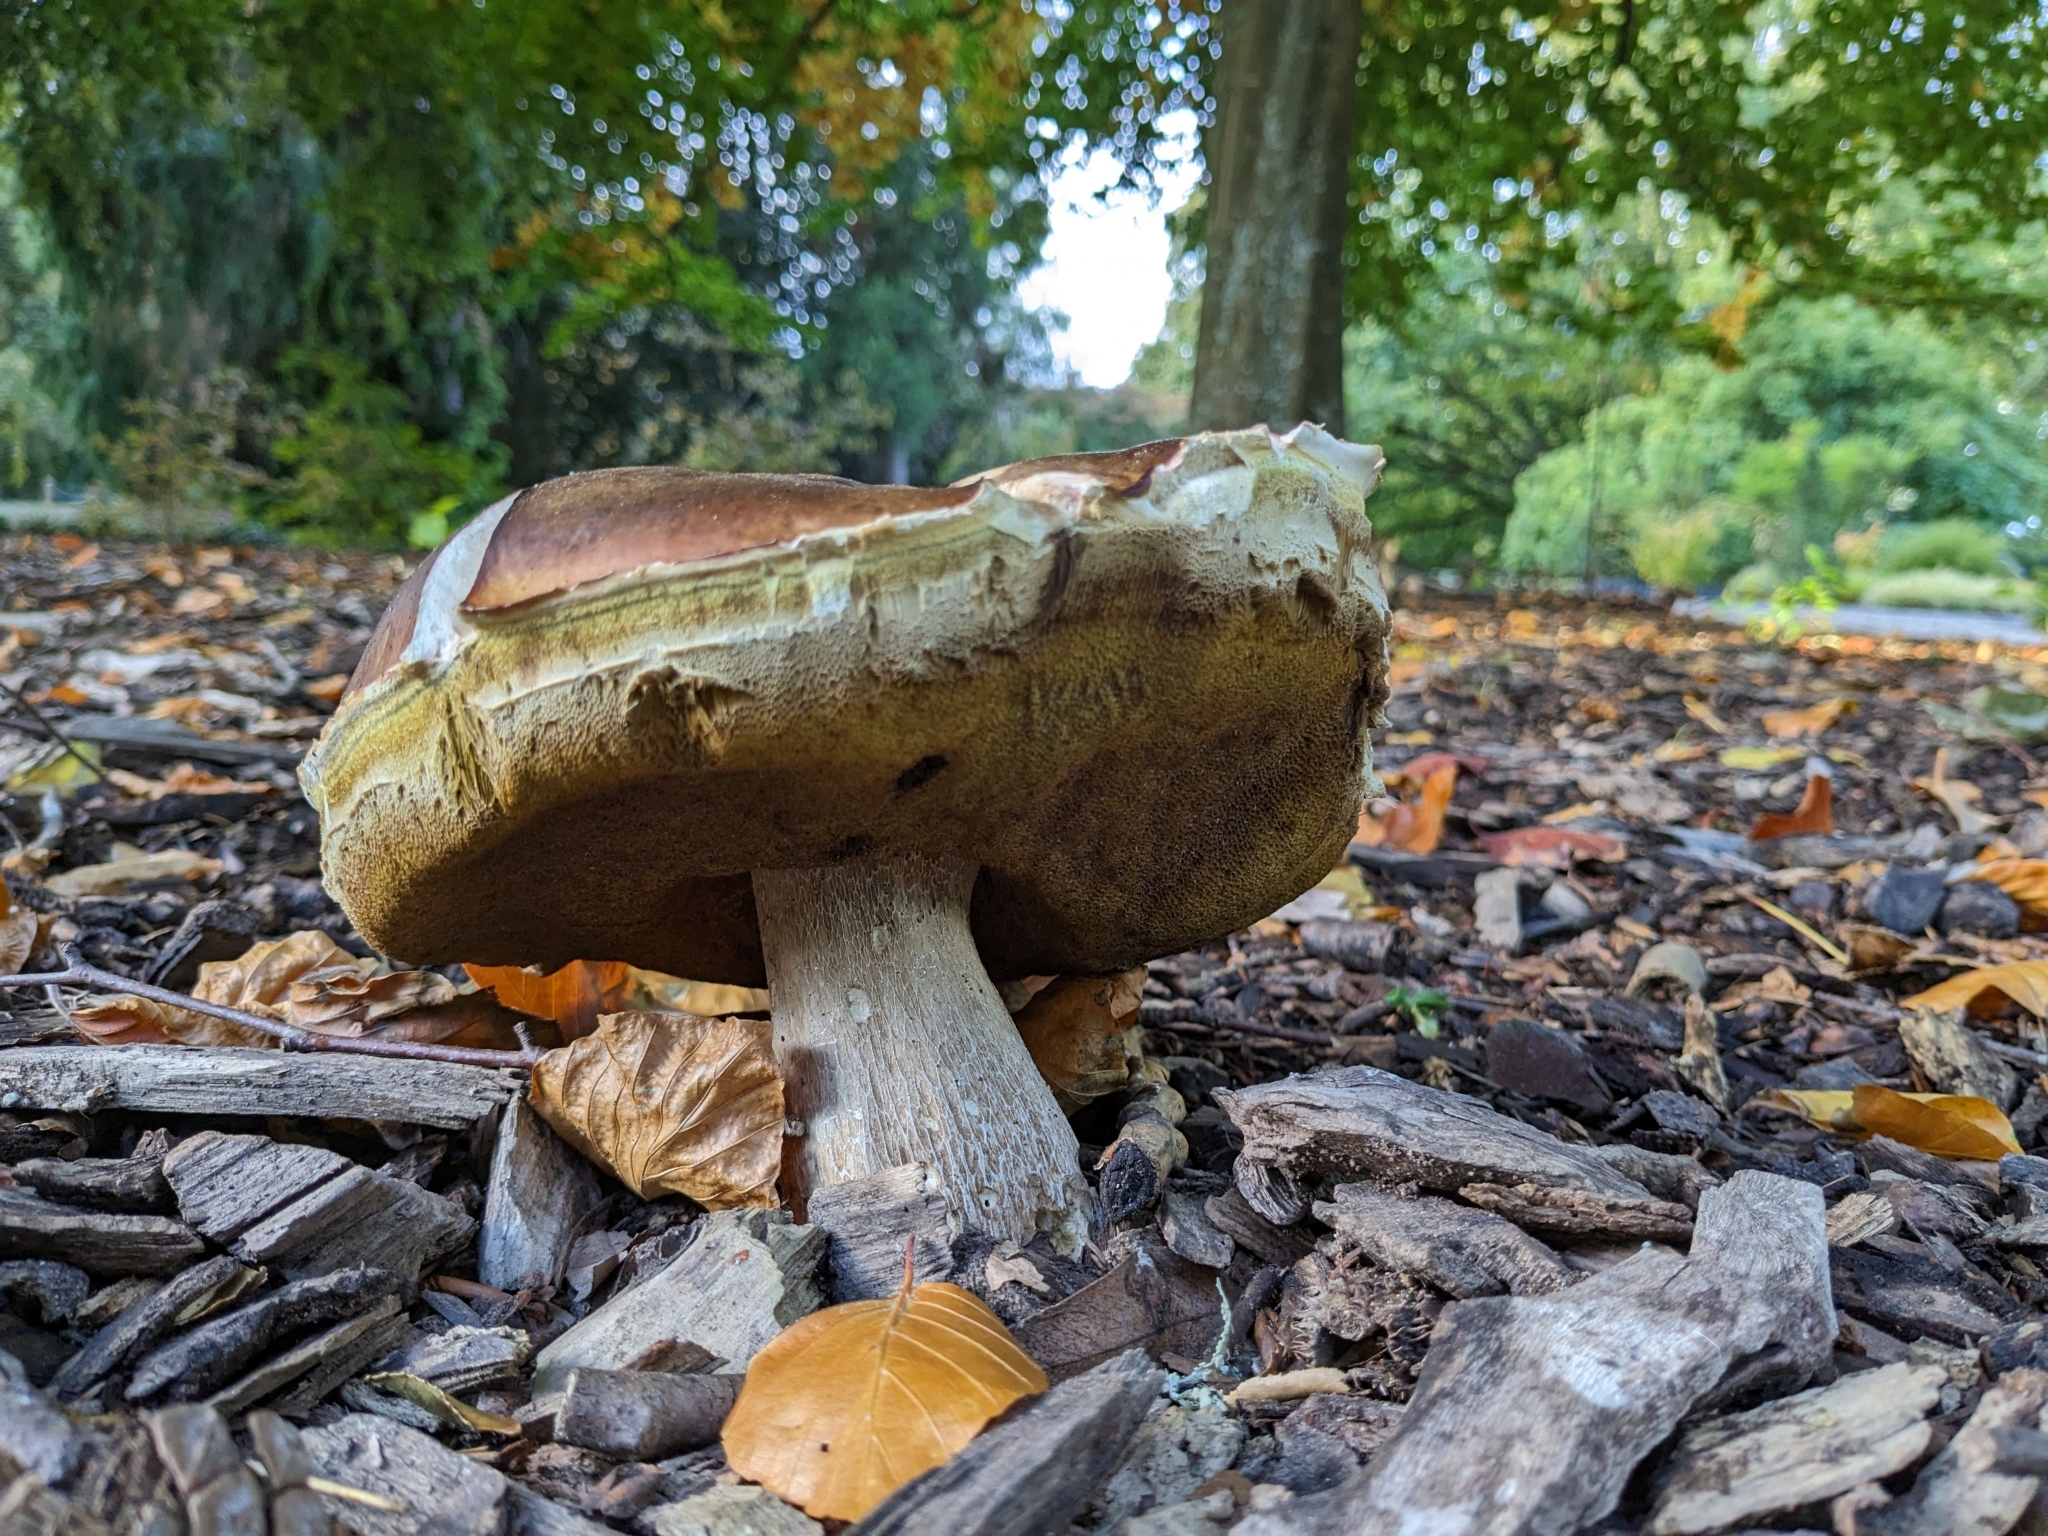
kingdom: Fungi
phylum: Basidiomycota
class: Agaricomycetes
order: Boletales
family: Boletaceae
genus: Boletus
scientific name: Boletus edulis
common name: Cep
